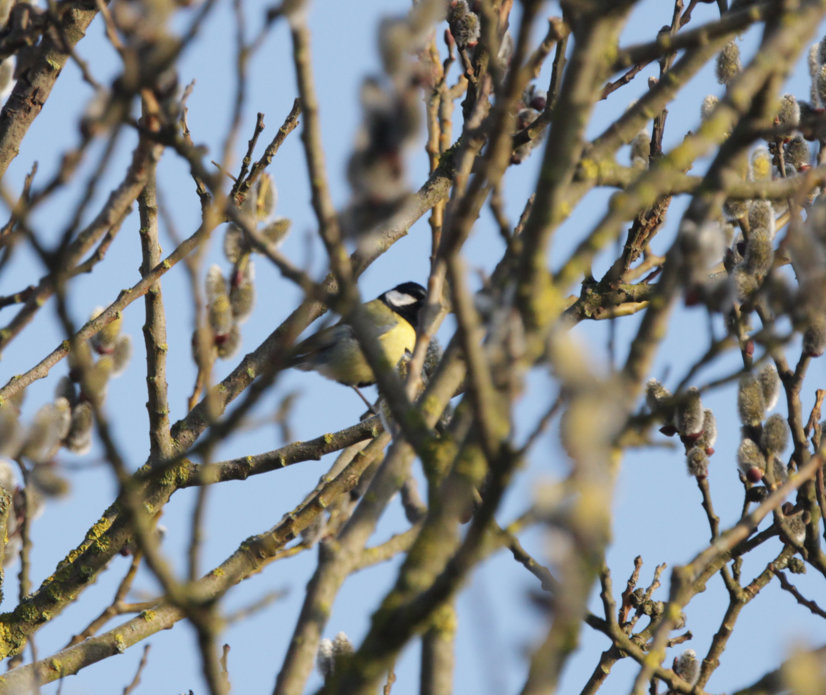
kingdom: Animalia
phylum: Chordata
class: Aves
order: Passeriformes
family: Paridae
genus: Parus
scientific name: Parus major
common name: Great tit
